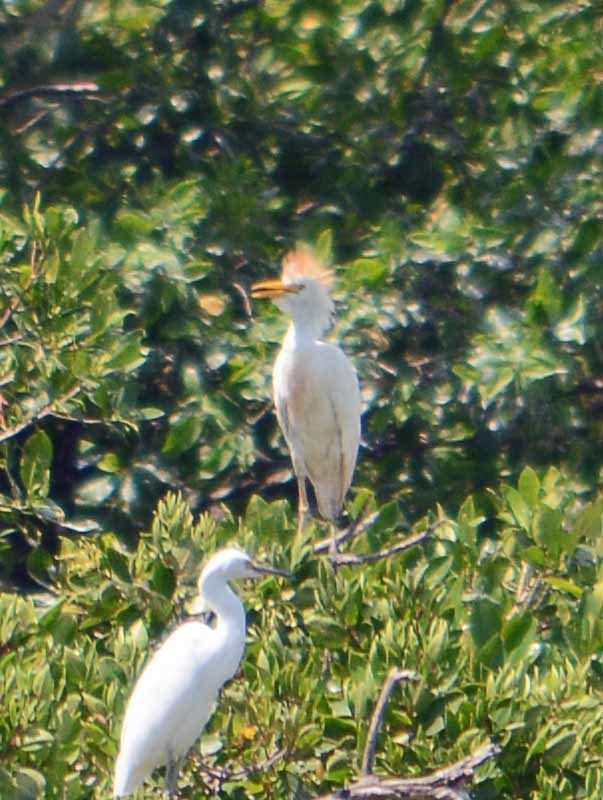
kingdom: Animalia
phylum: Chordata
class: Aves
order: Pelecaniformes
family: Ardeidae
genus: Bubulcus
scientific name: Bubulcus ibis
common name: Cattle egret
